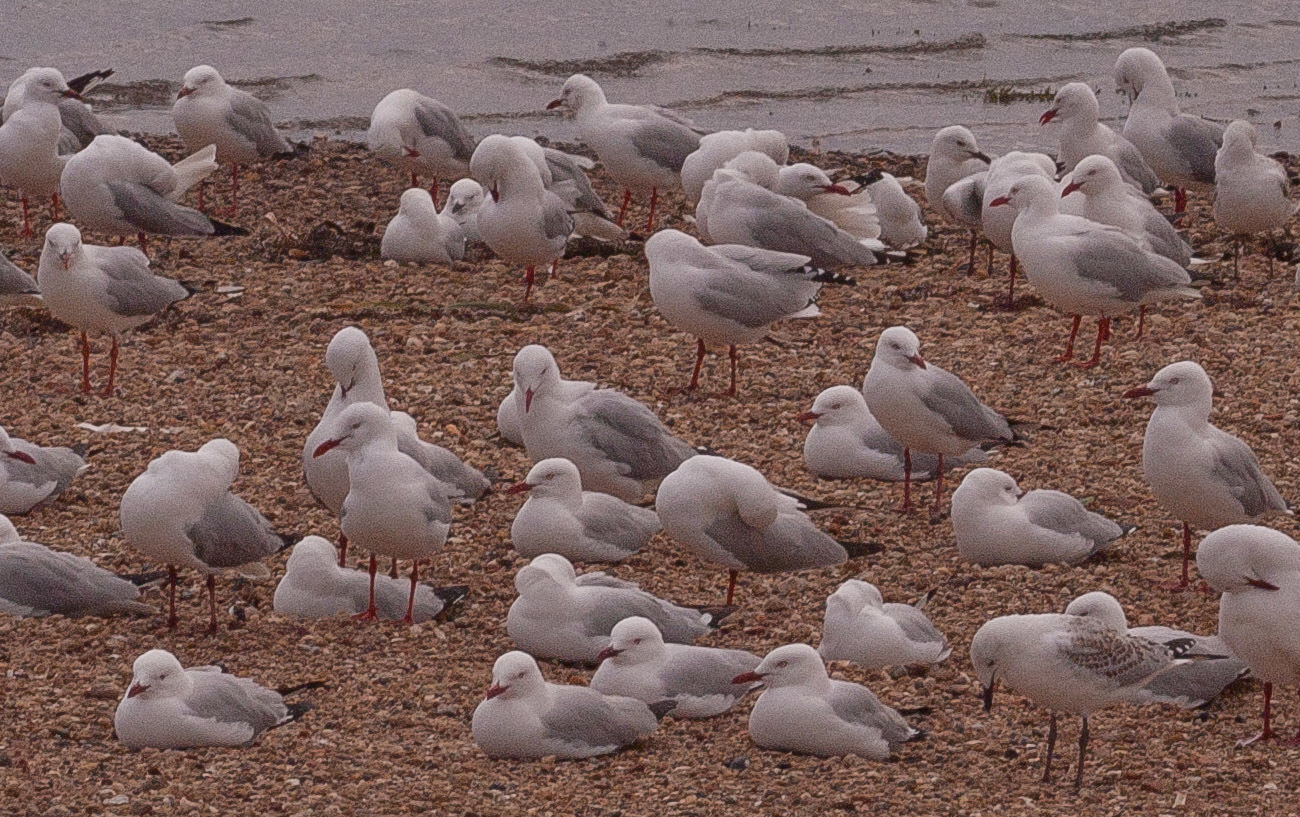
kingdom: Animalia
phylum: Chordata
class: Aves
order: Charadriiformes
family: Laridae
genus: Chroicocephalus
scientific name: Chroicocephalus novaehollandiae
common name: Silver gull
